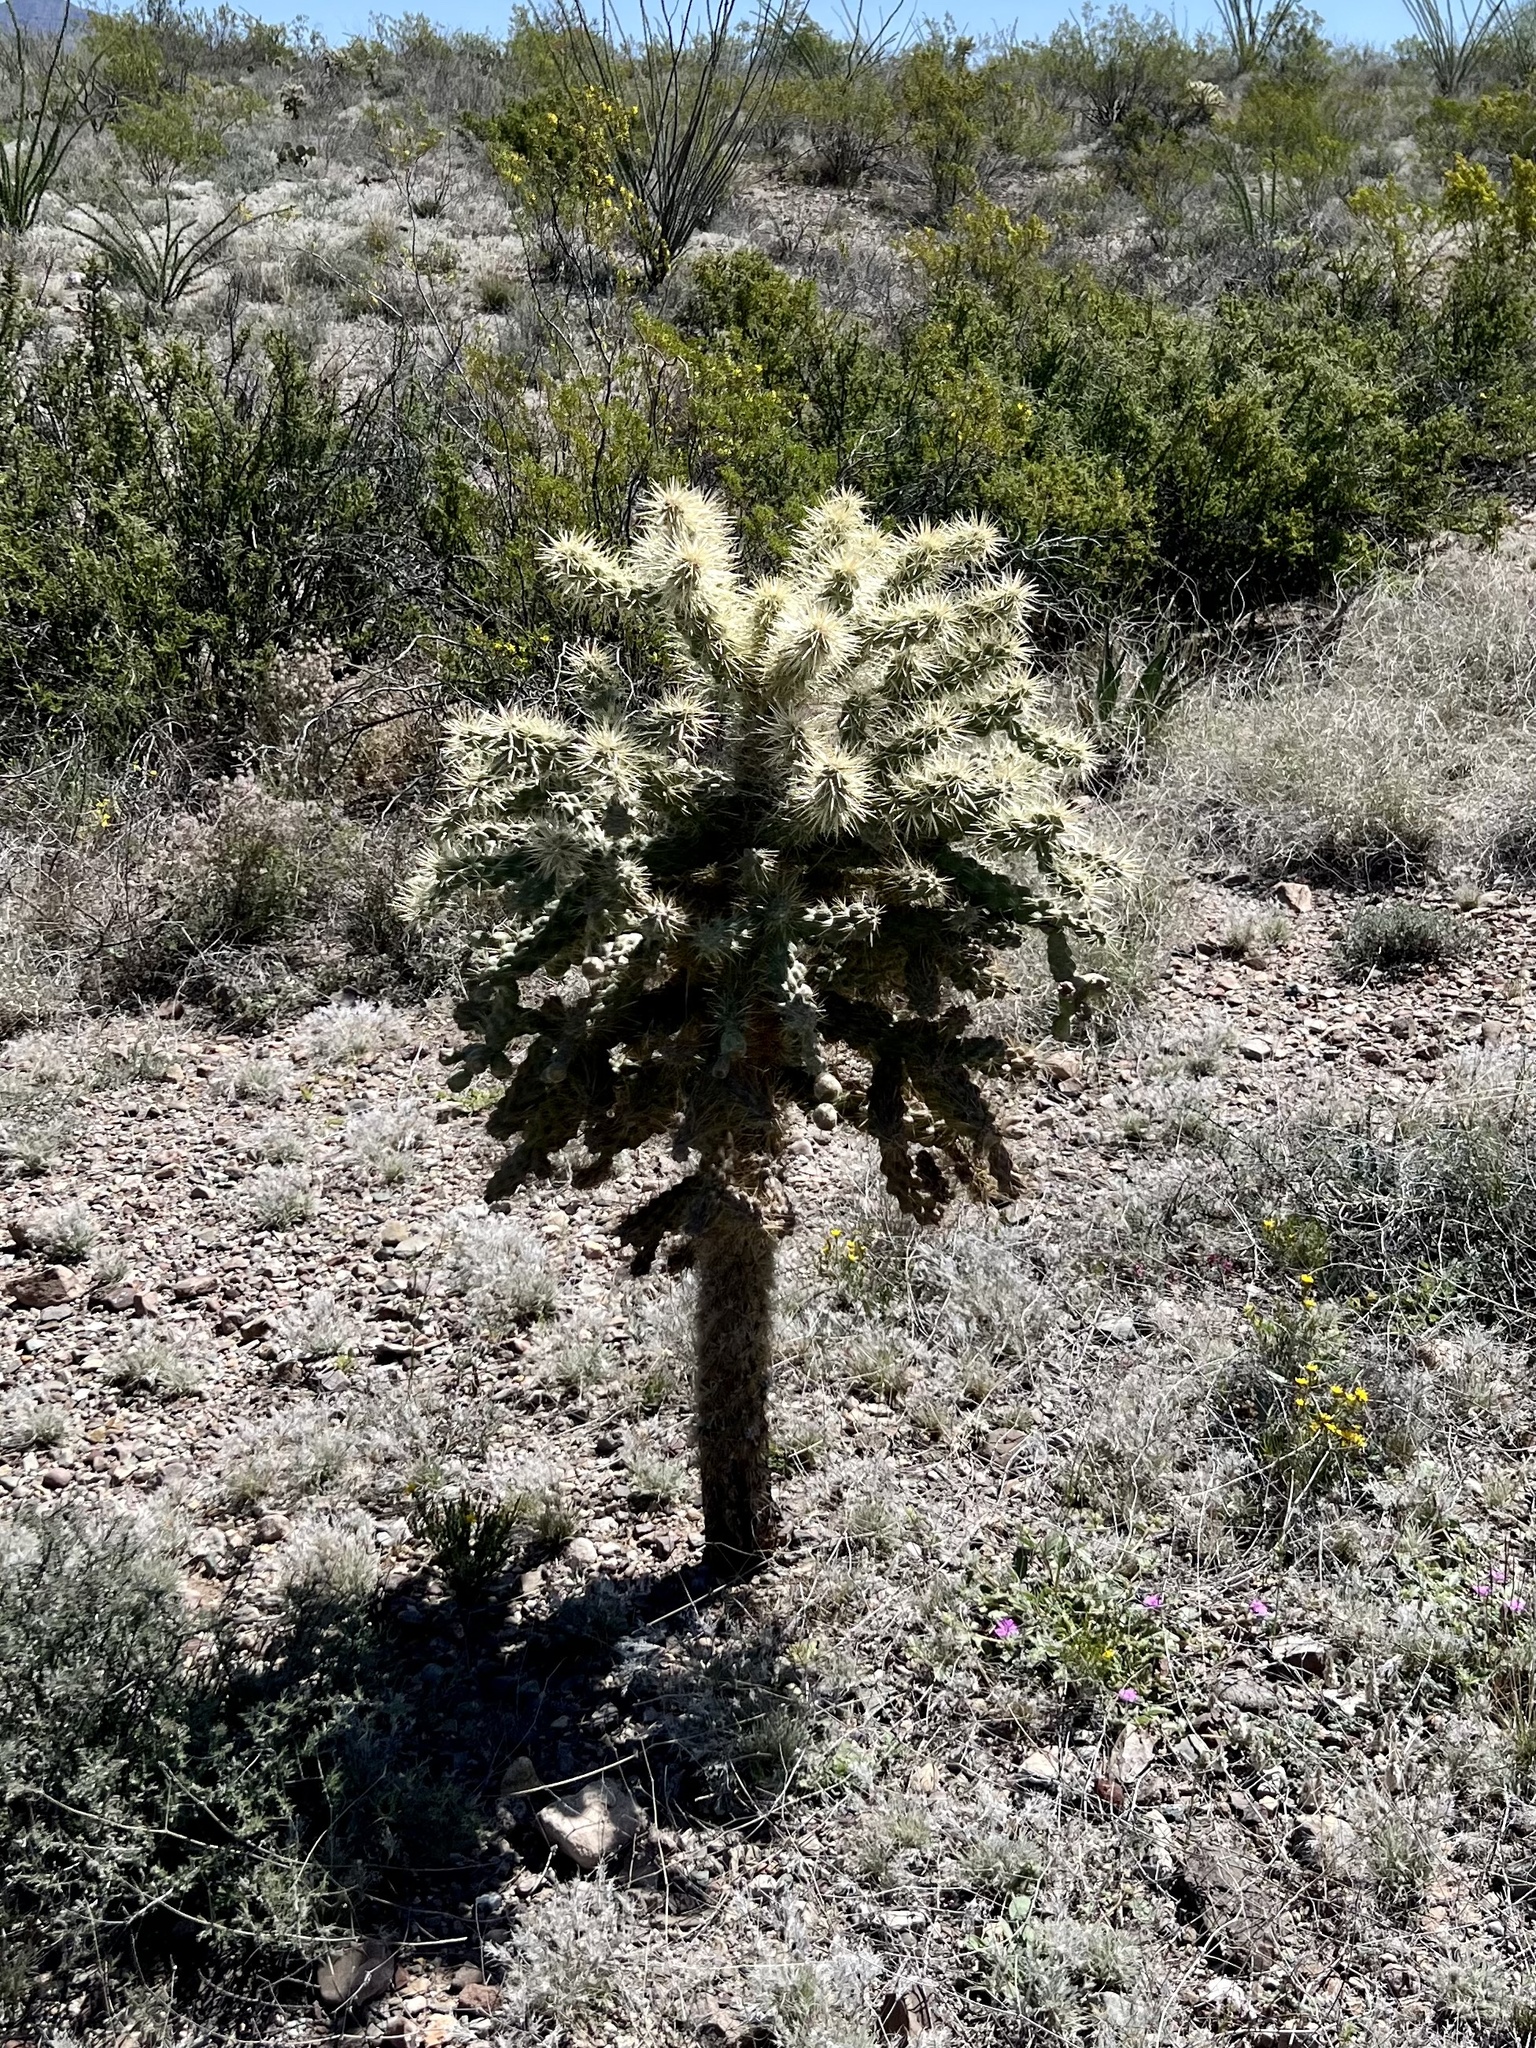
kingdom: Plantae
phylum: Tracheophyta
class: Magnoliopsida
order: Caryophyllales
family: Cactaceae
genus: Cylindropuntia
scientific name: Cylindropuntia fulgida
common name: Jumping cholla
